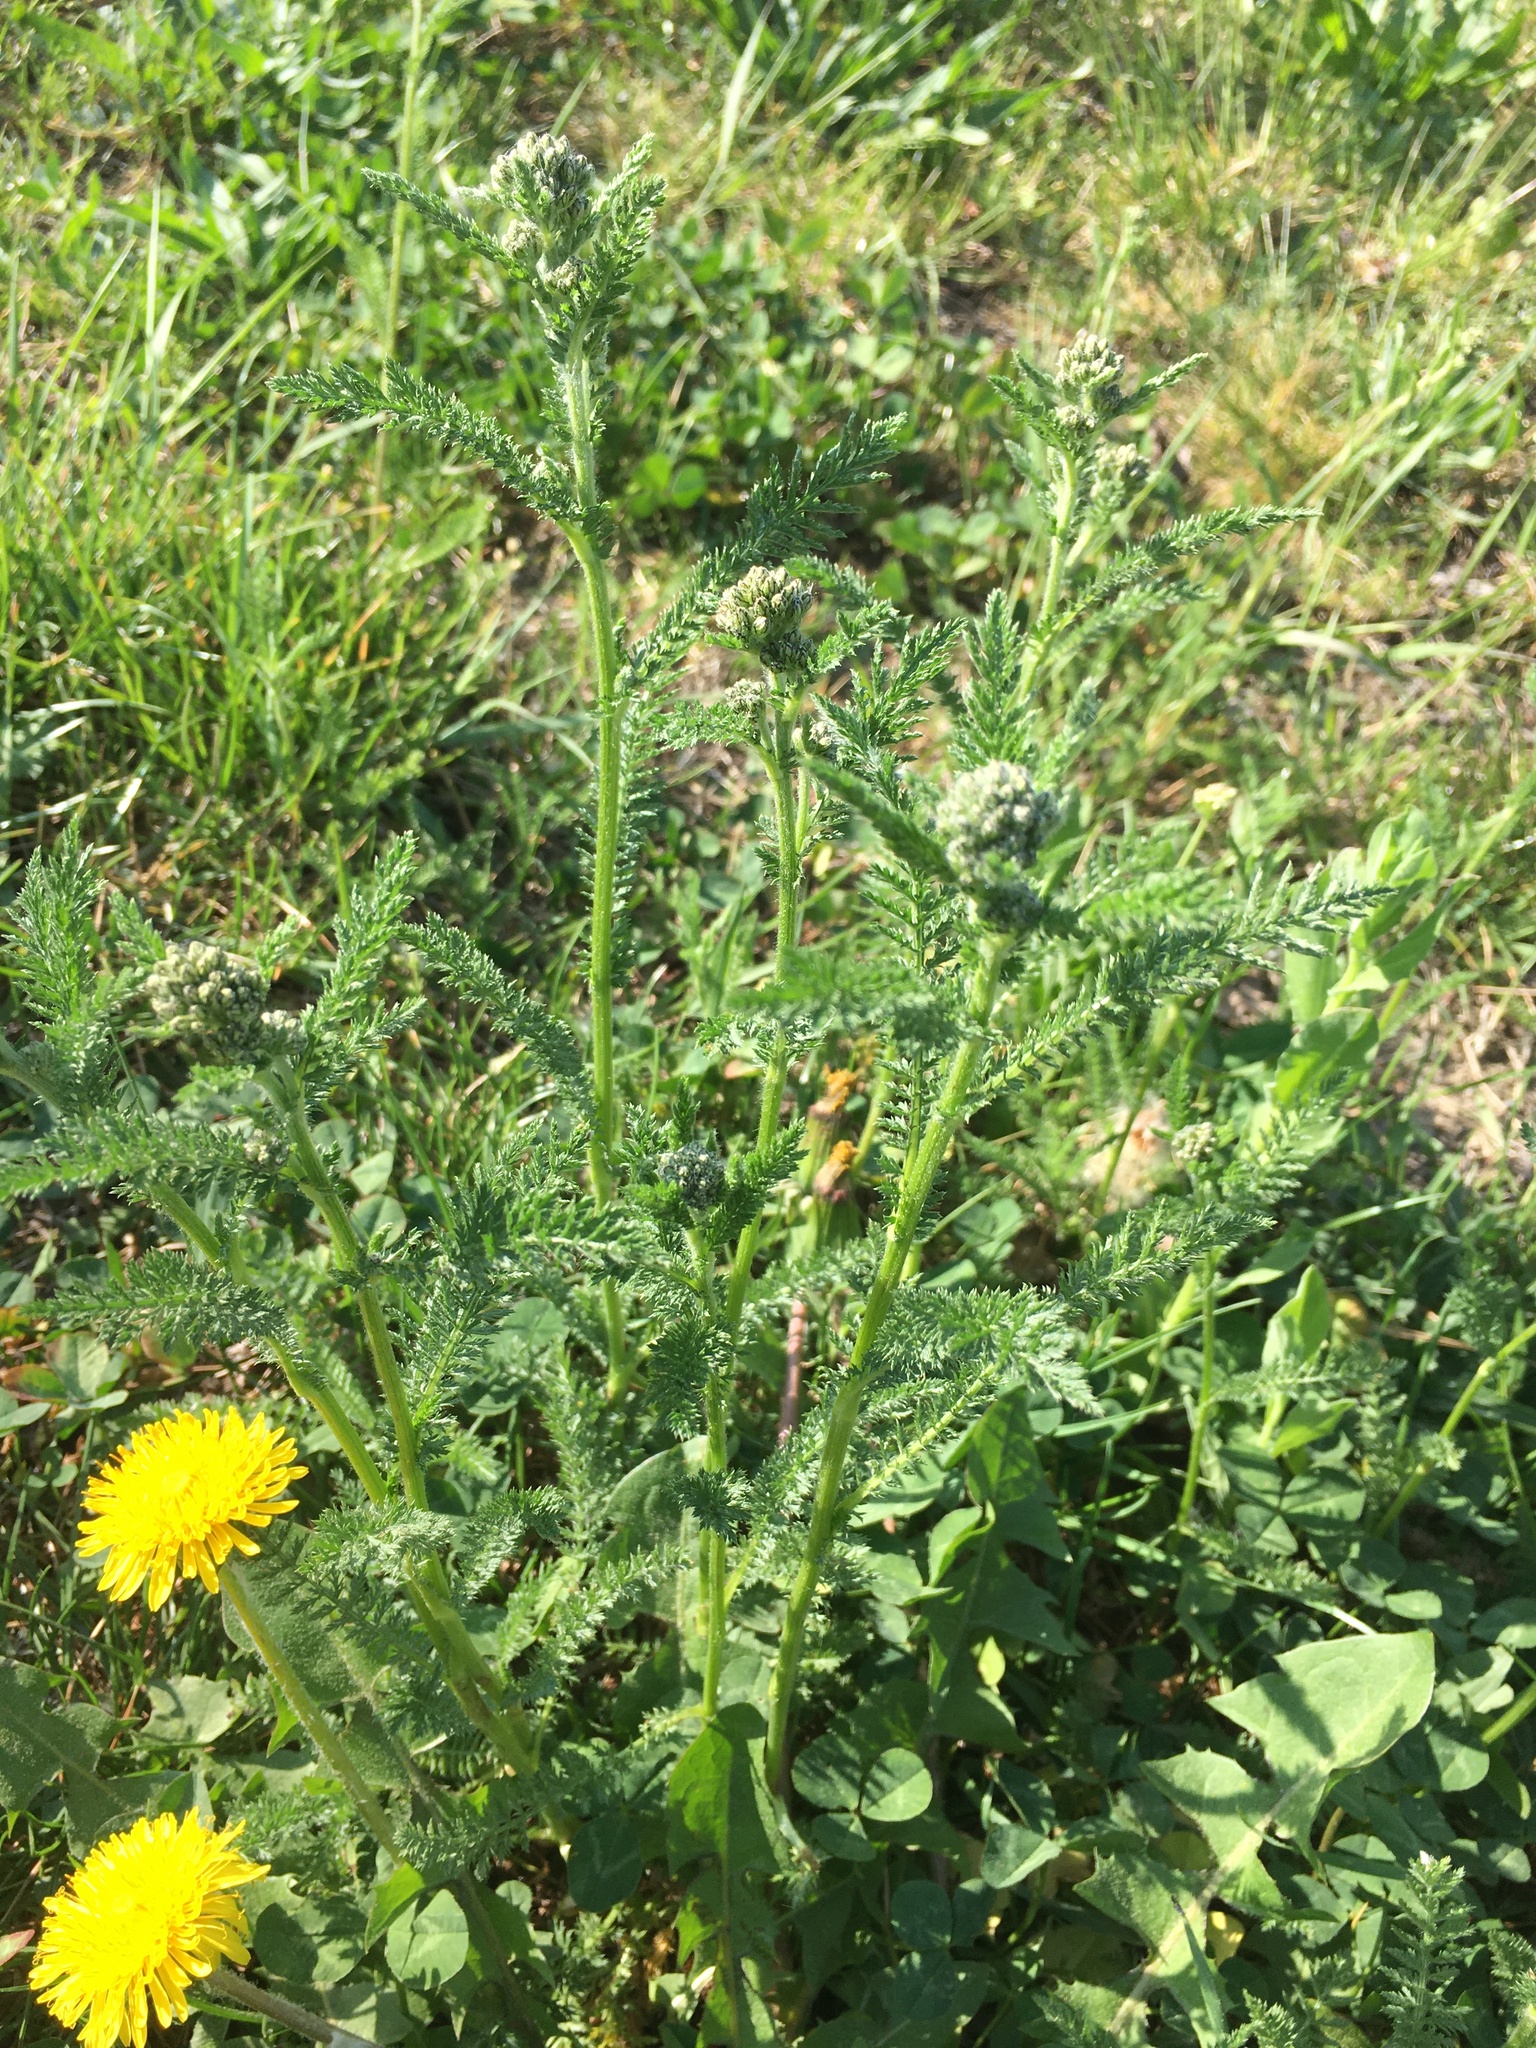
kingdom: Plantae
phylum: Tracheophyta
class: Magnoliopsida
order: Asterales
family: Asteraceae
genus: Achillea
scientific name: Achillea millefolium
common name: Yarrow
